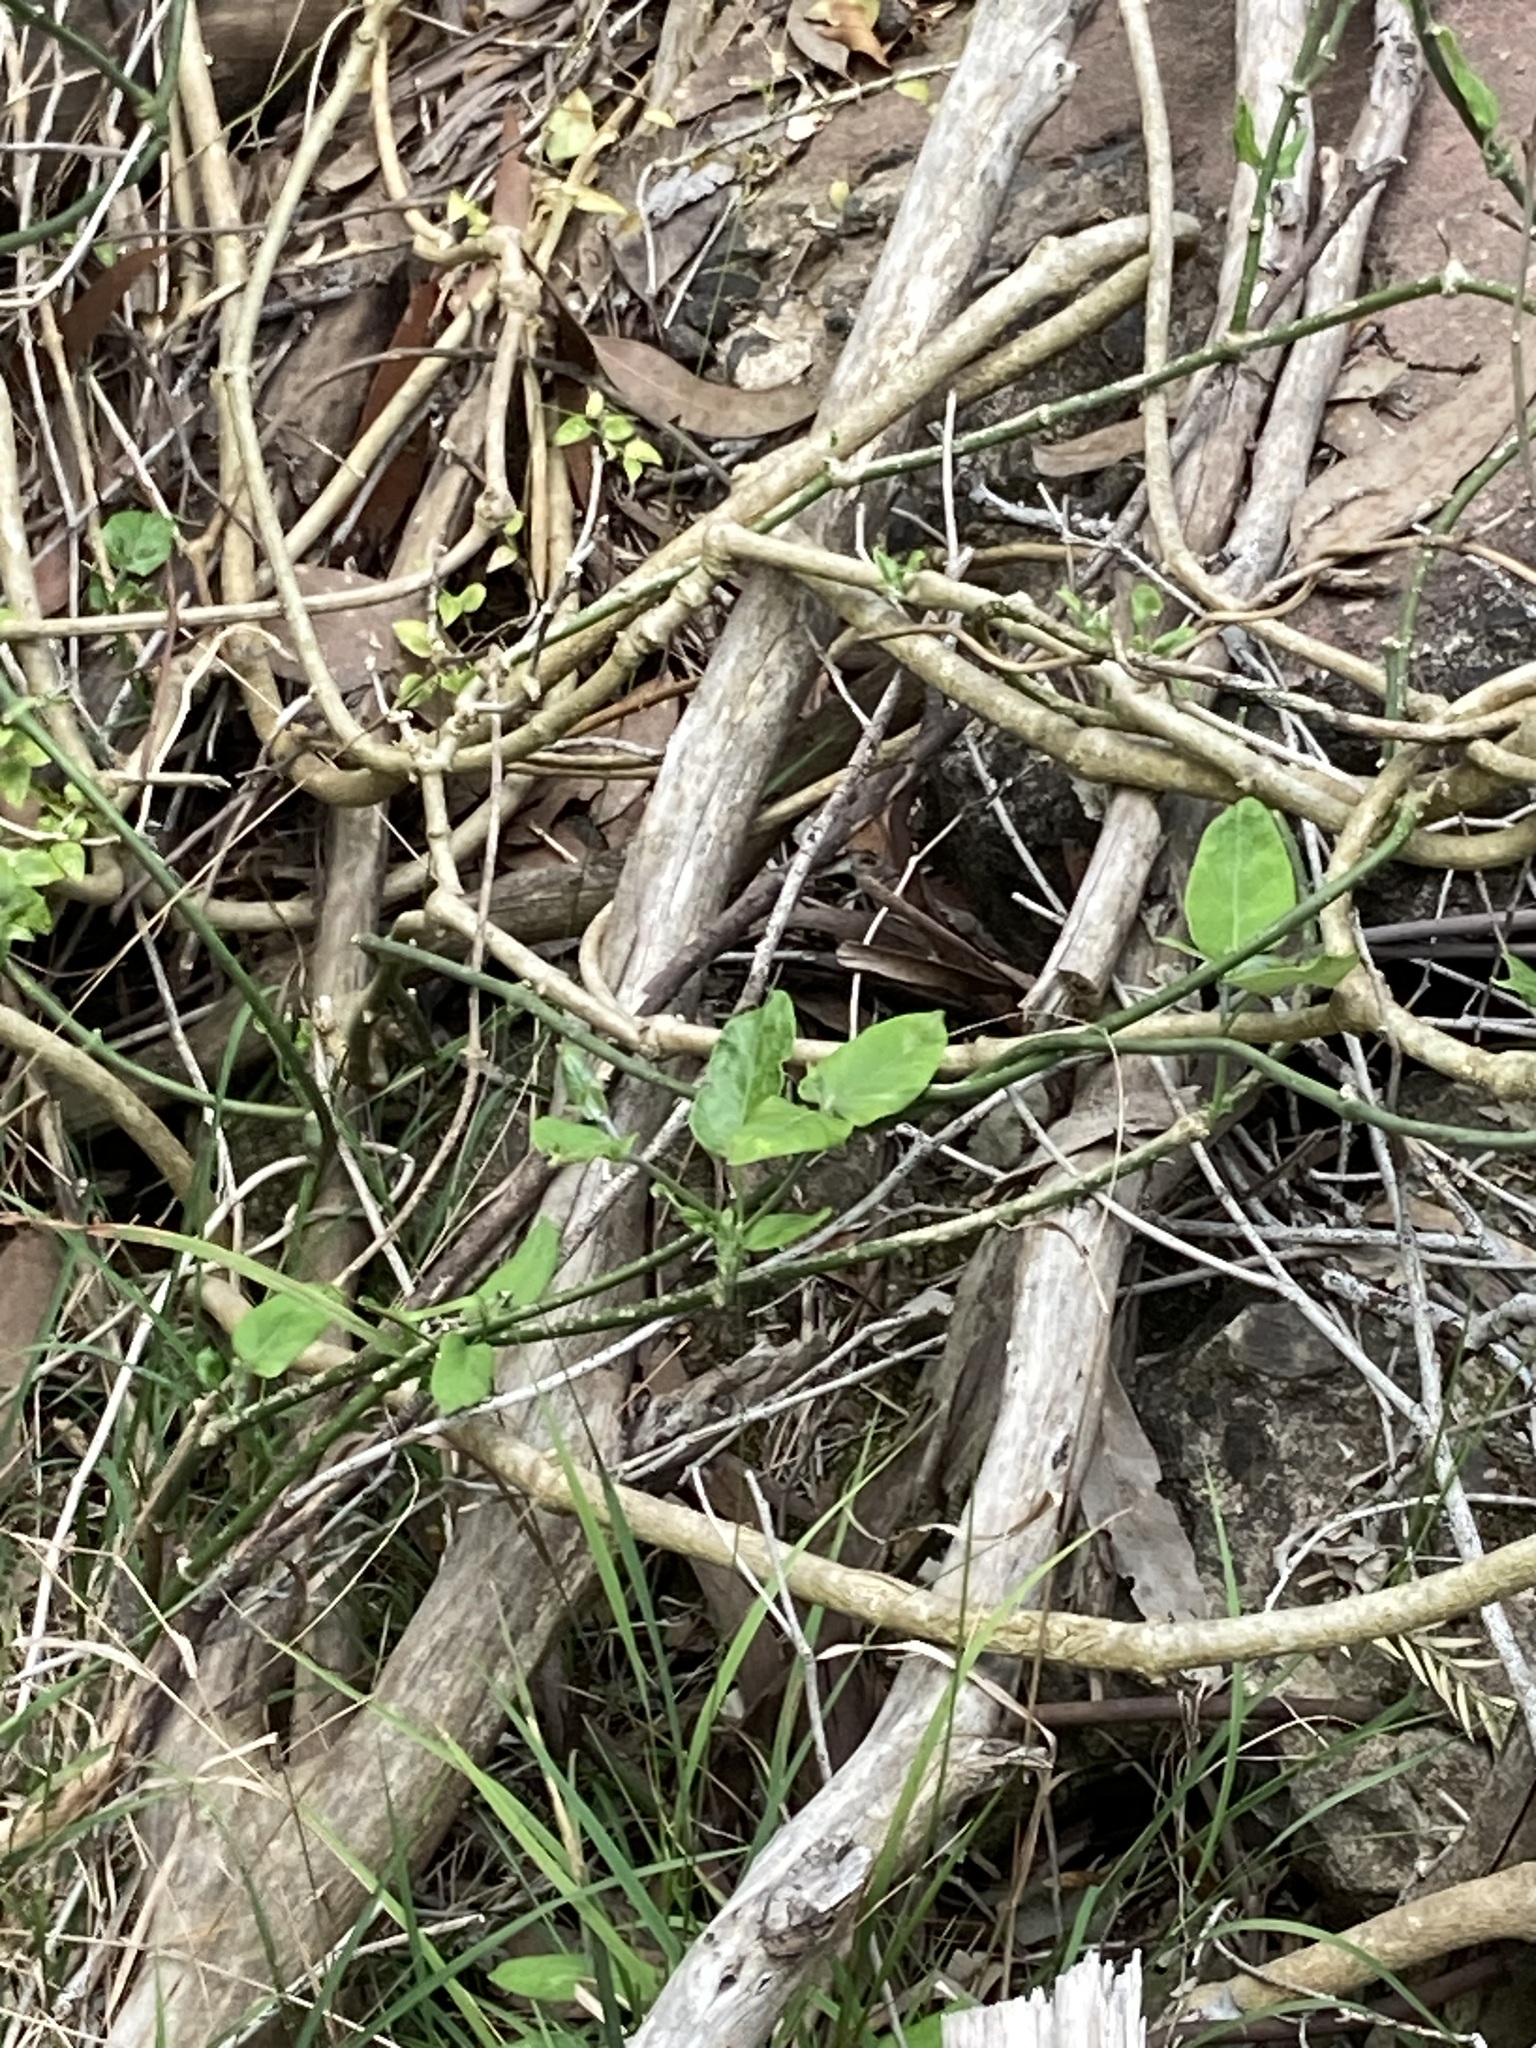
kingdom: Plantae
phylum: Tracheophyta
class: Magnoliopsida
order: Gentianales
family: Apocynaceae
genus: Araujia
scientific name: Araujia sericifera
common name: White bladderflower
